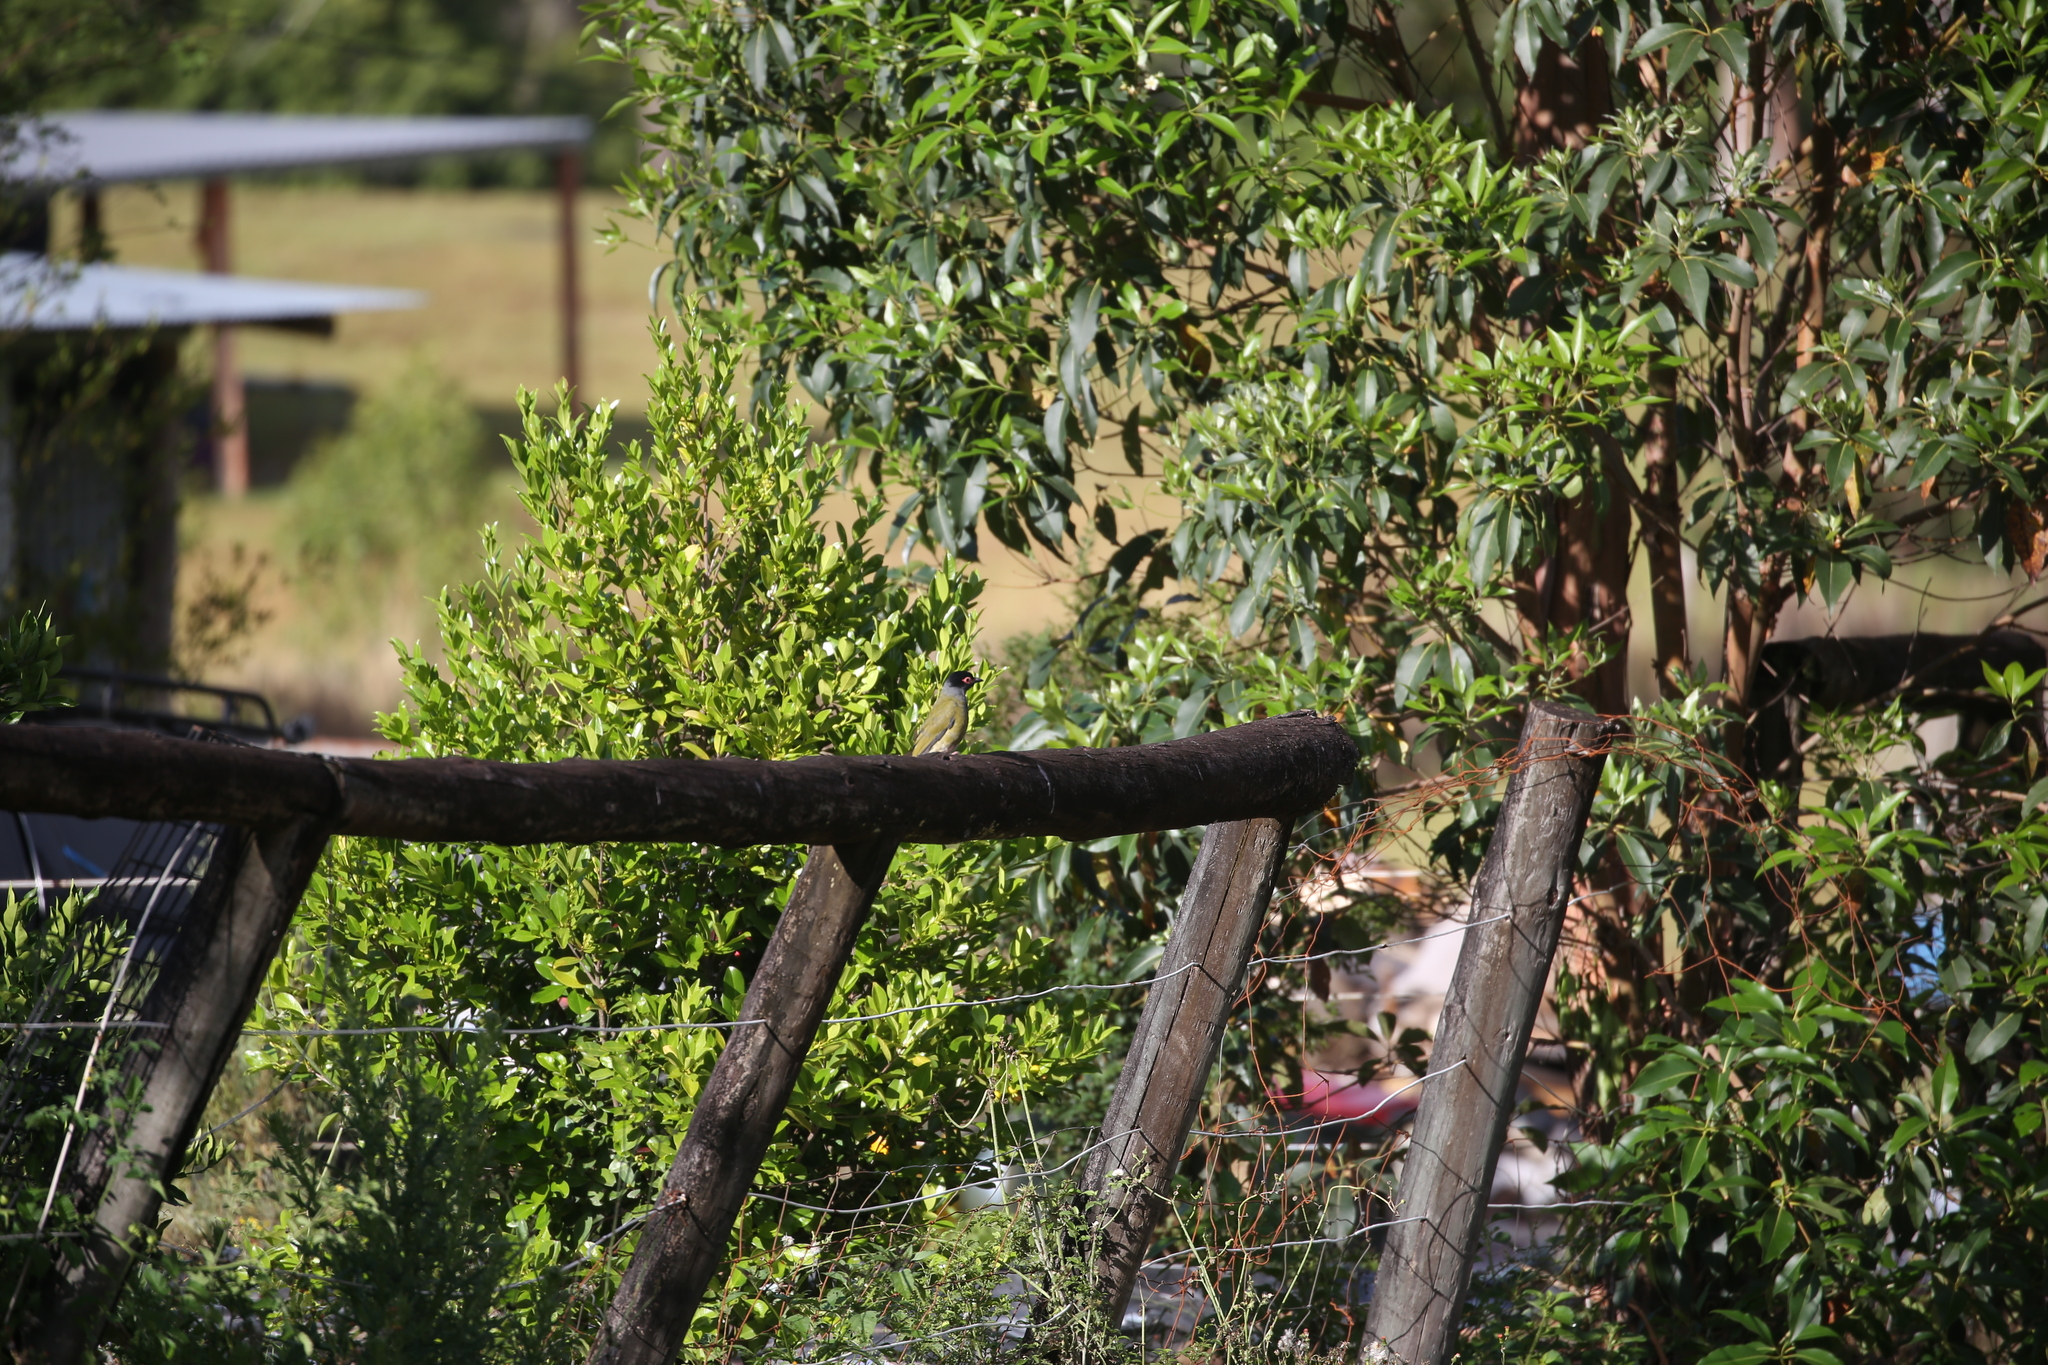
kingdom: Animalia
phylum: Chordata
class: Aves
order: Passeriformes
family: Oriolidae
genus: Sphecotheres
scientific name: Sphecotheres vieilloti
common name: Australasian figbird
